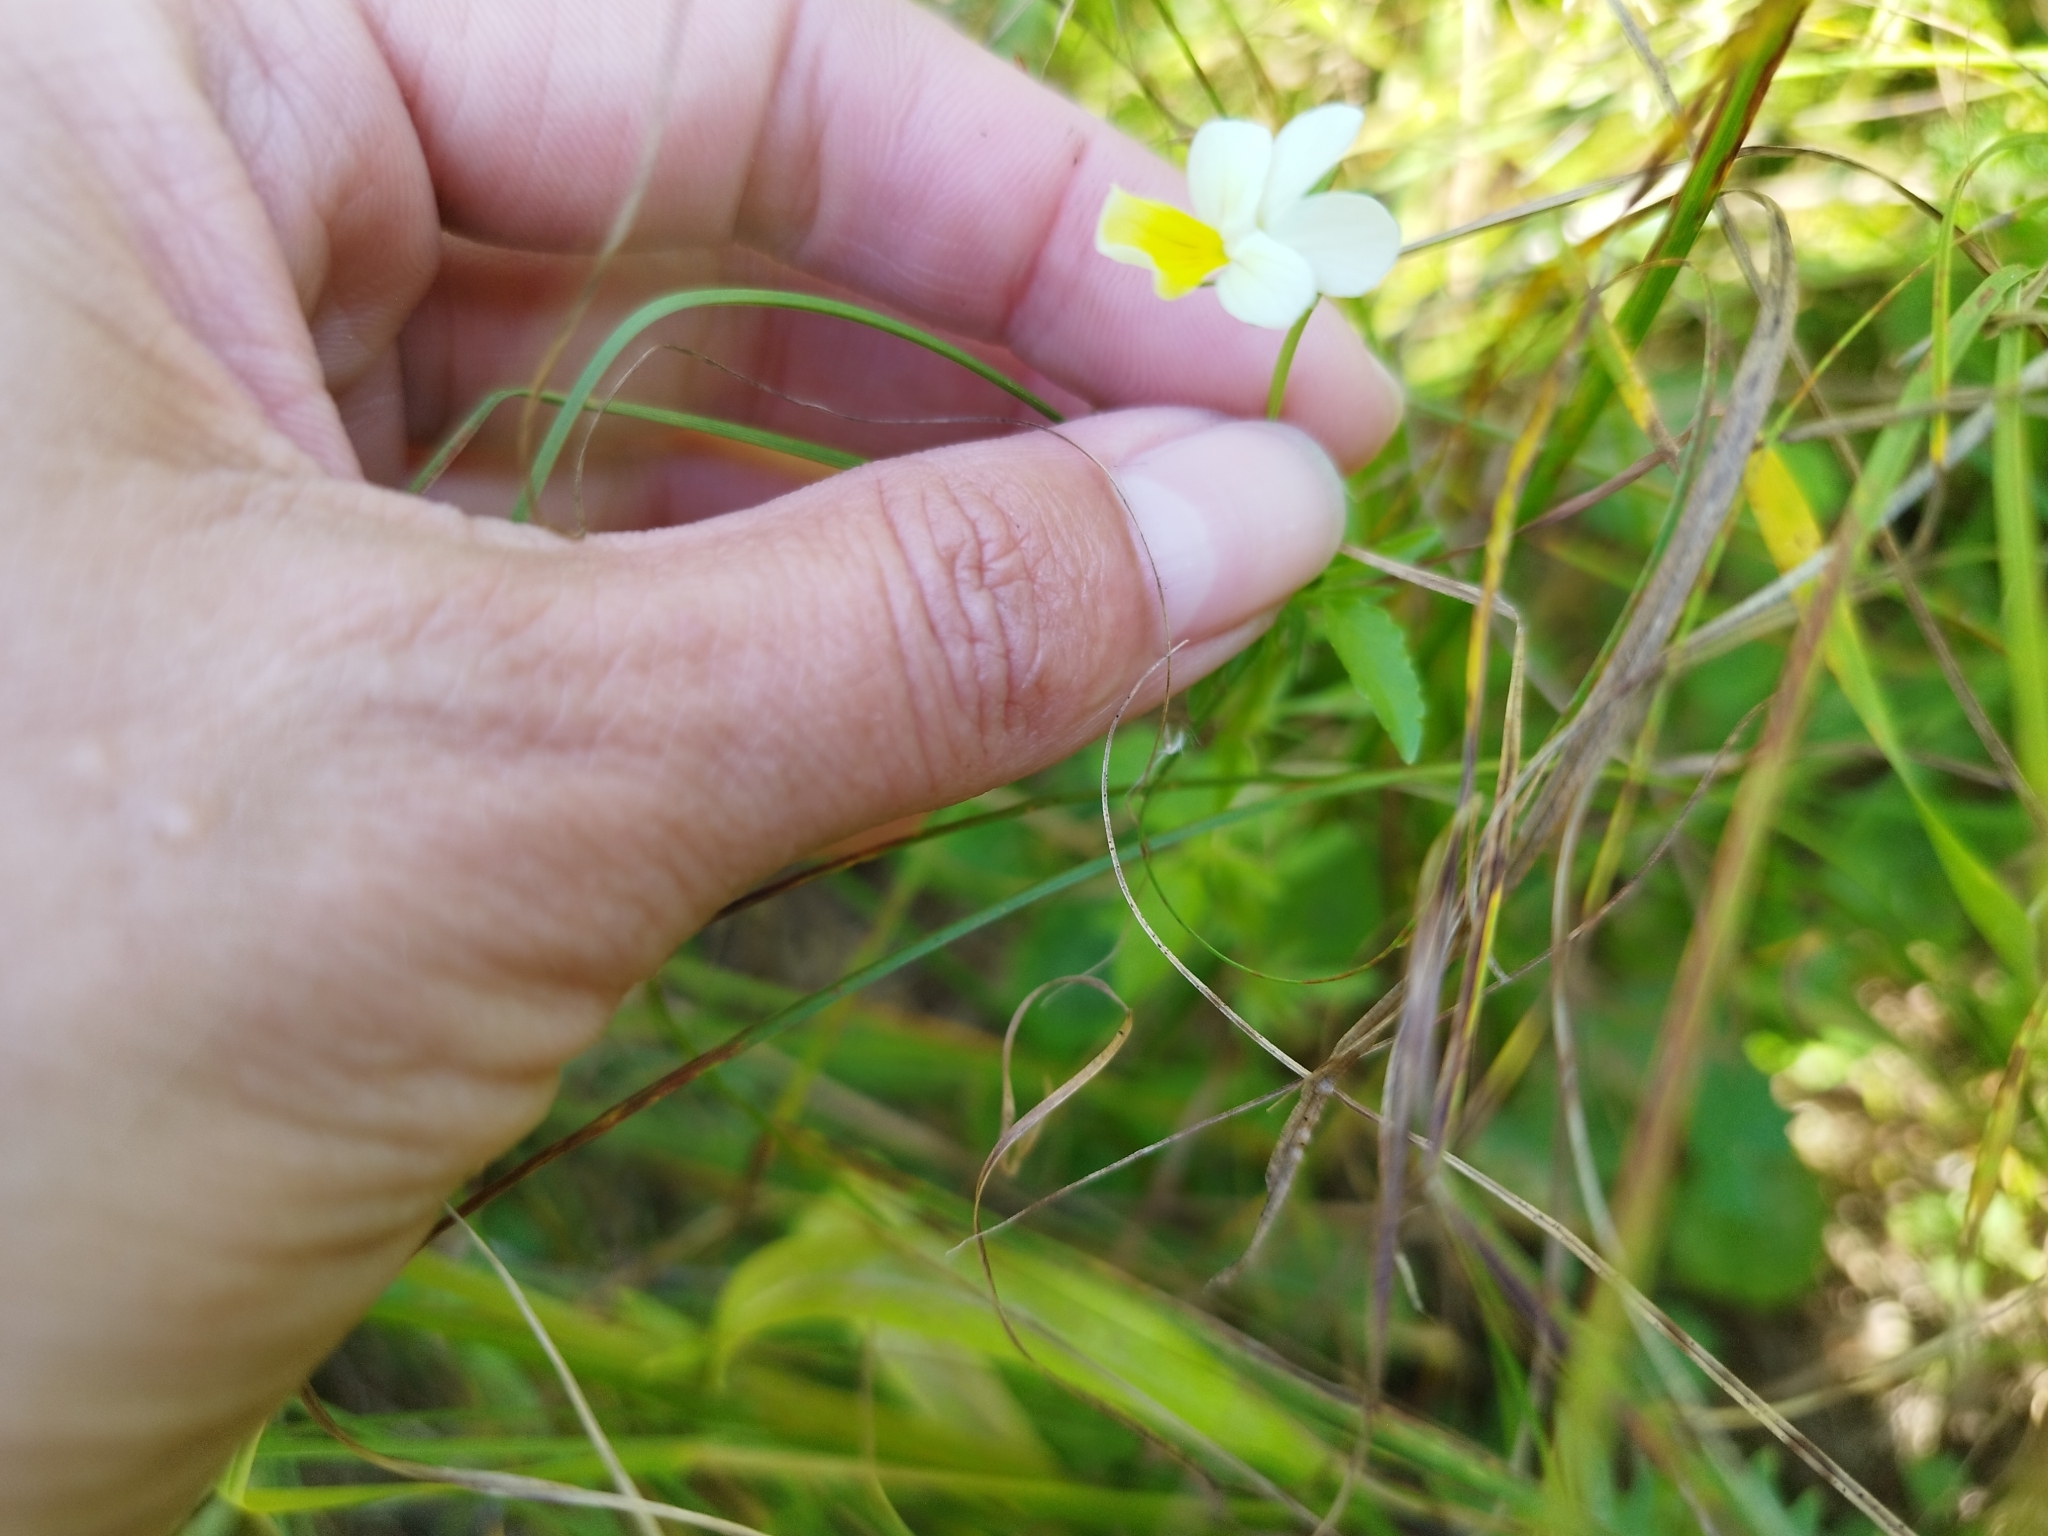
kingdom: Plantae
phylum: Tracheophyta
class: Magnoliopsida
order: Malpighiales
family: Violaceae
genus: Viola
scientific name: Viola arvensis
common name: Field pansy
